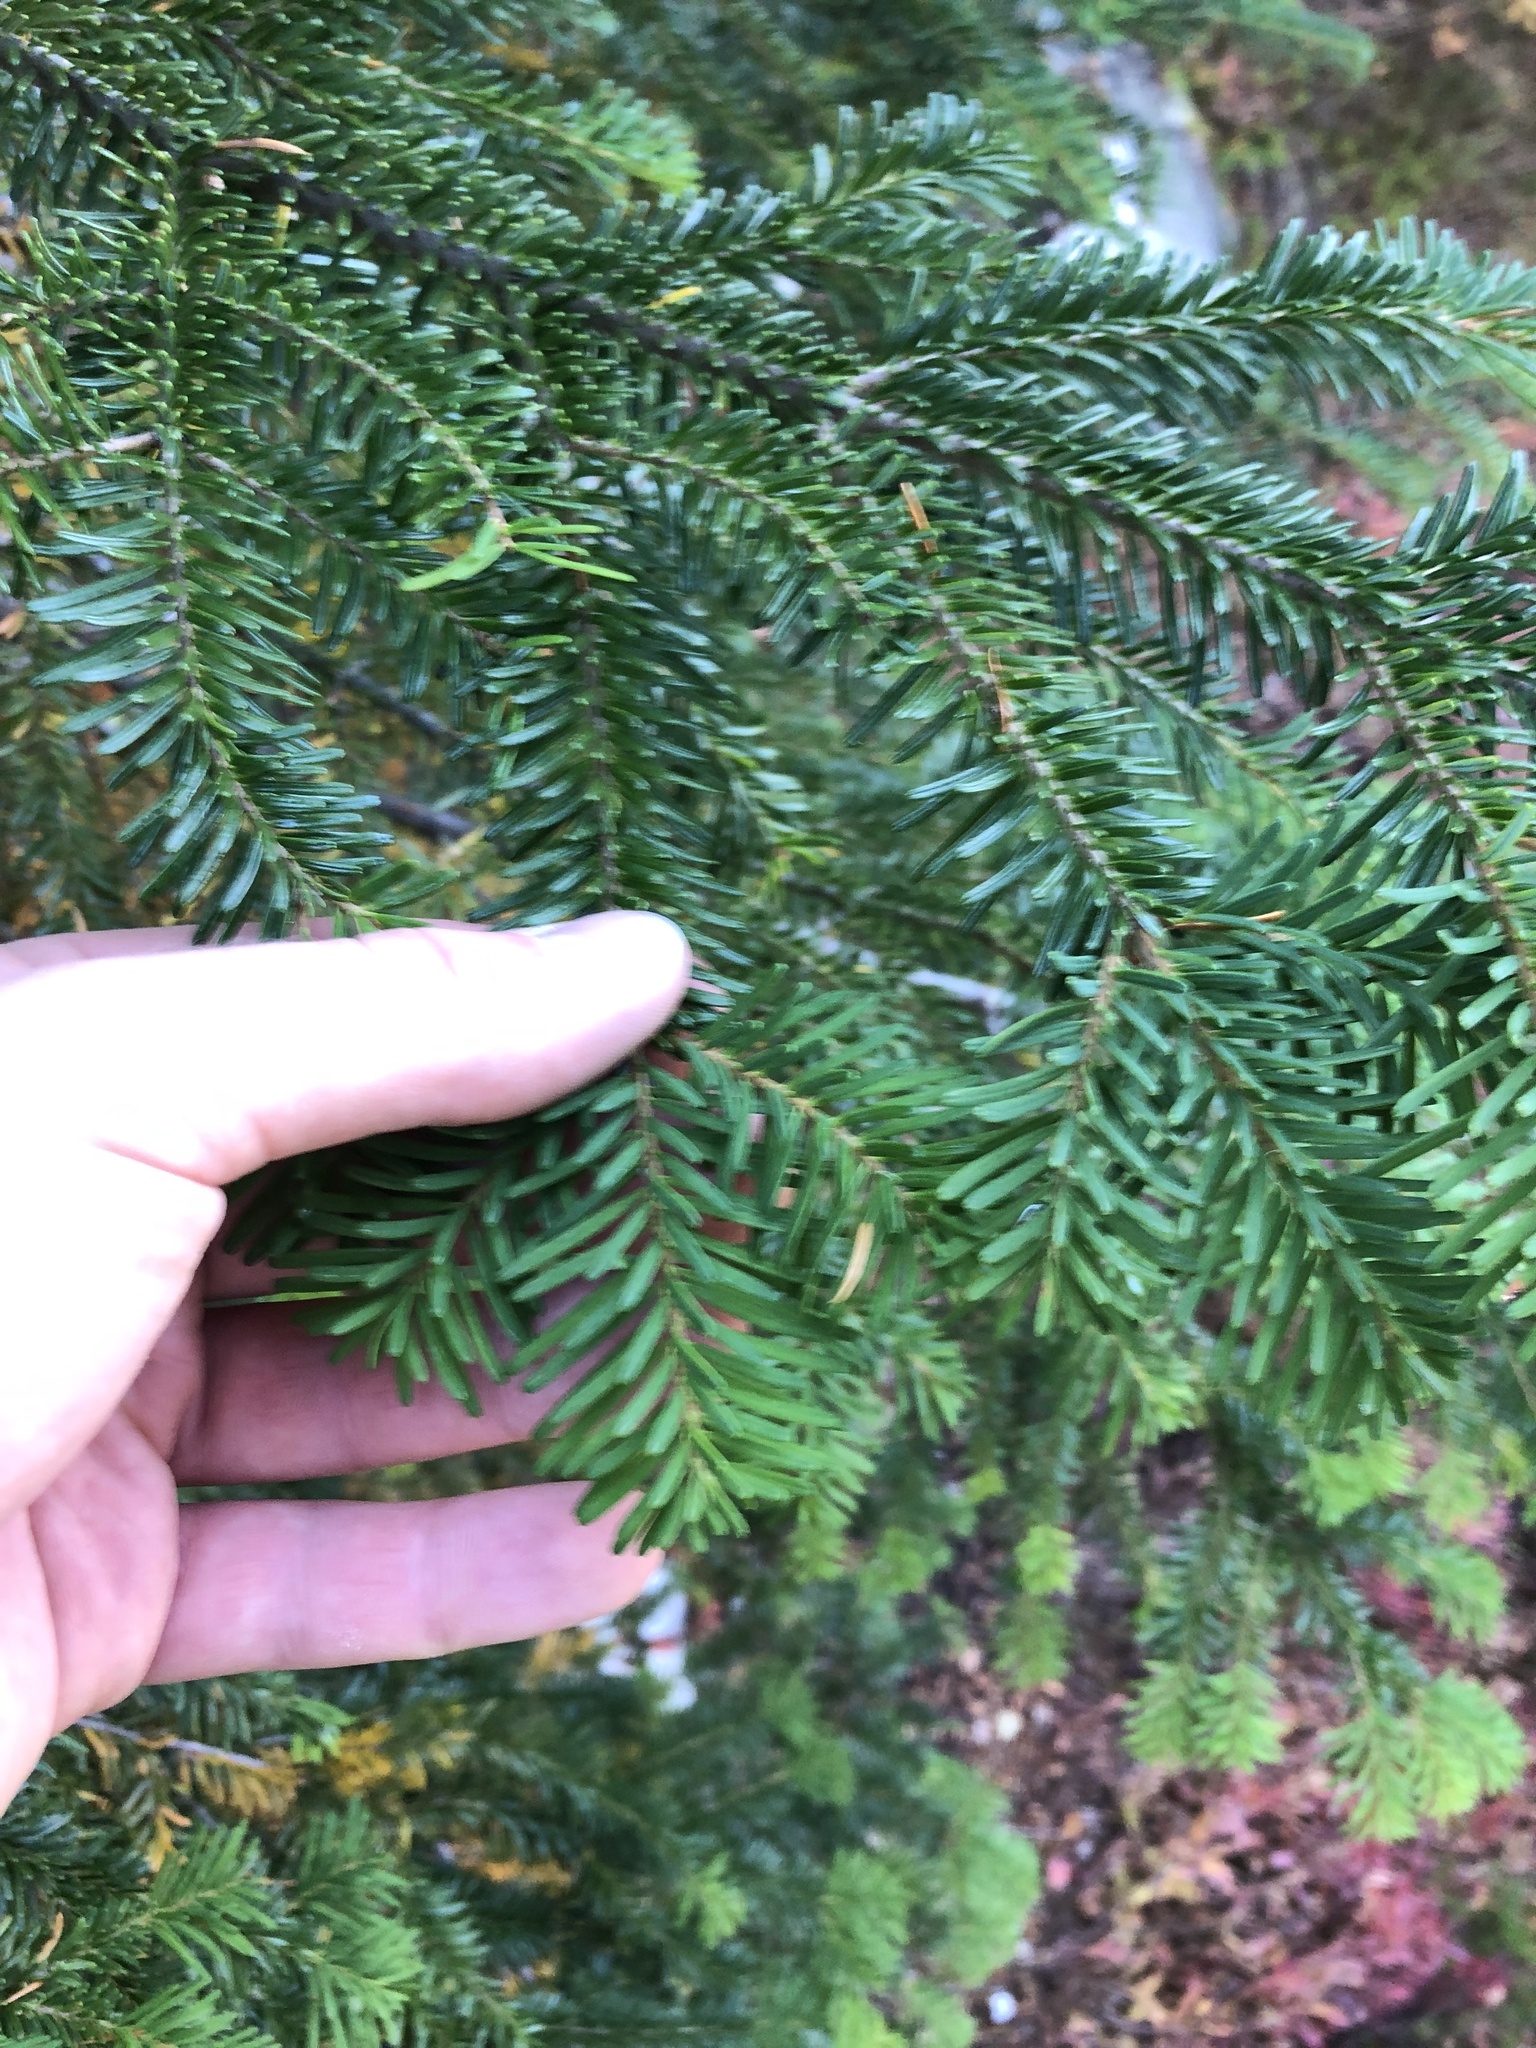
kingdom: Plantae
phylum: Tracheophyta
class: Pinopsida
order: Pinales
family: Pinaceae
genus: Abies
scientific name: Abies amabilis
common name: Pacific silver fir
